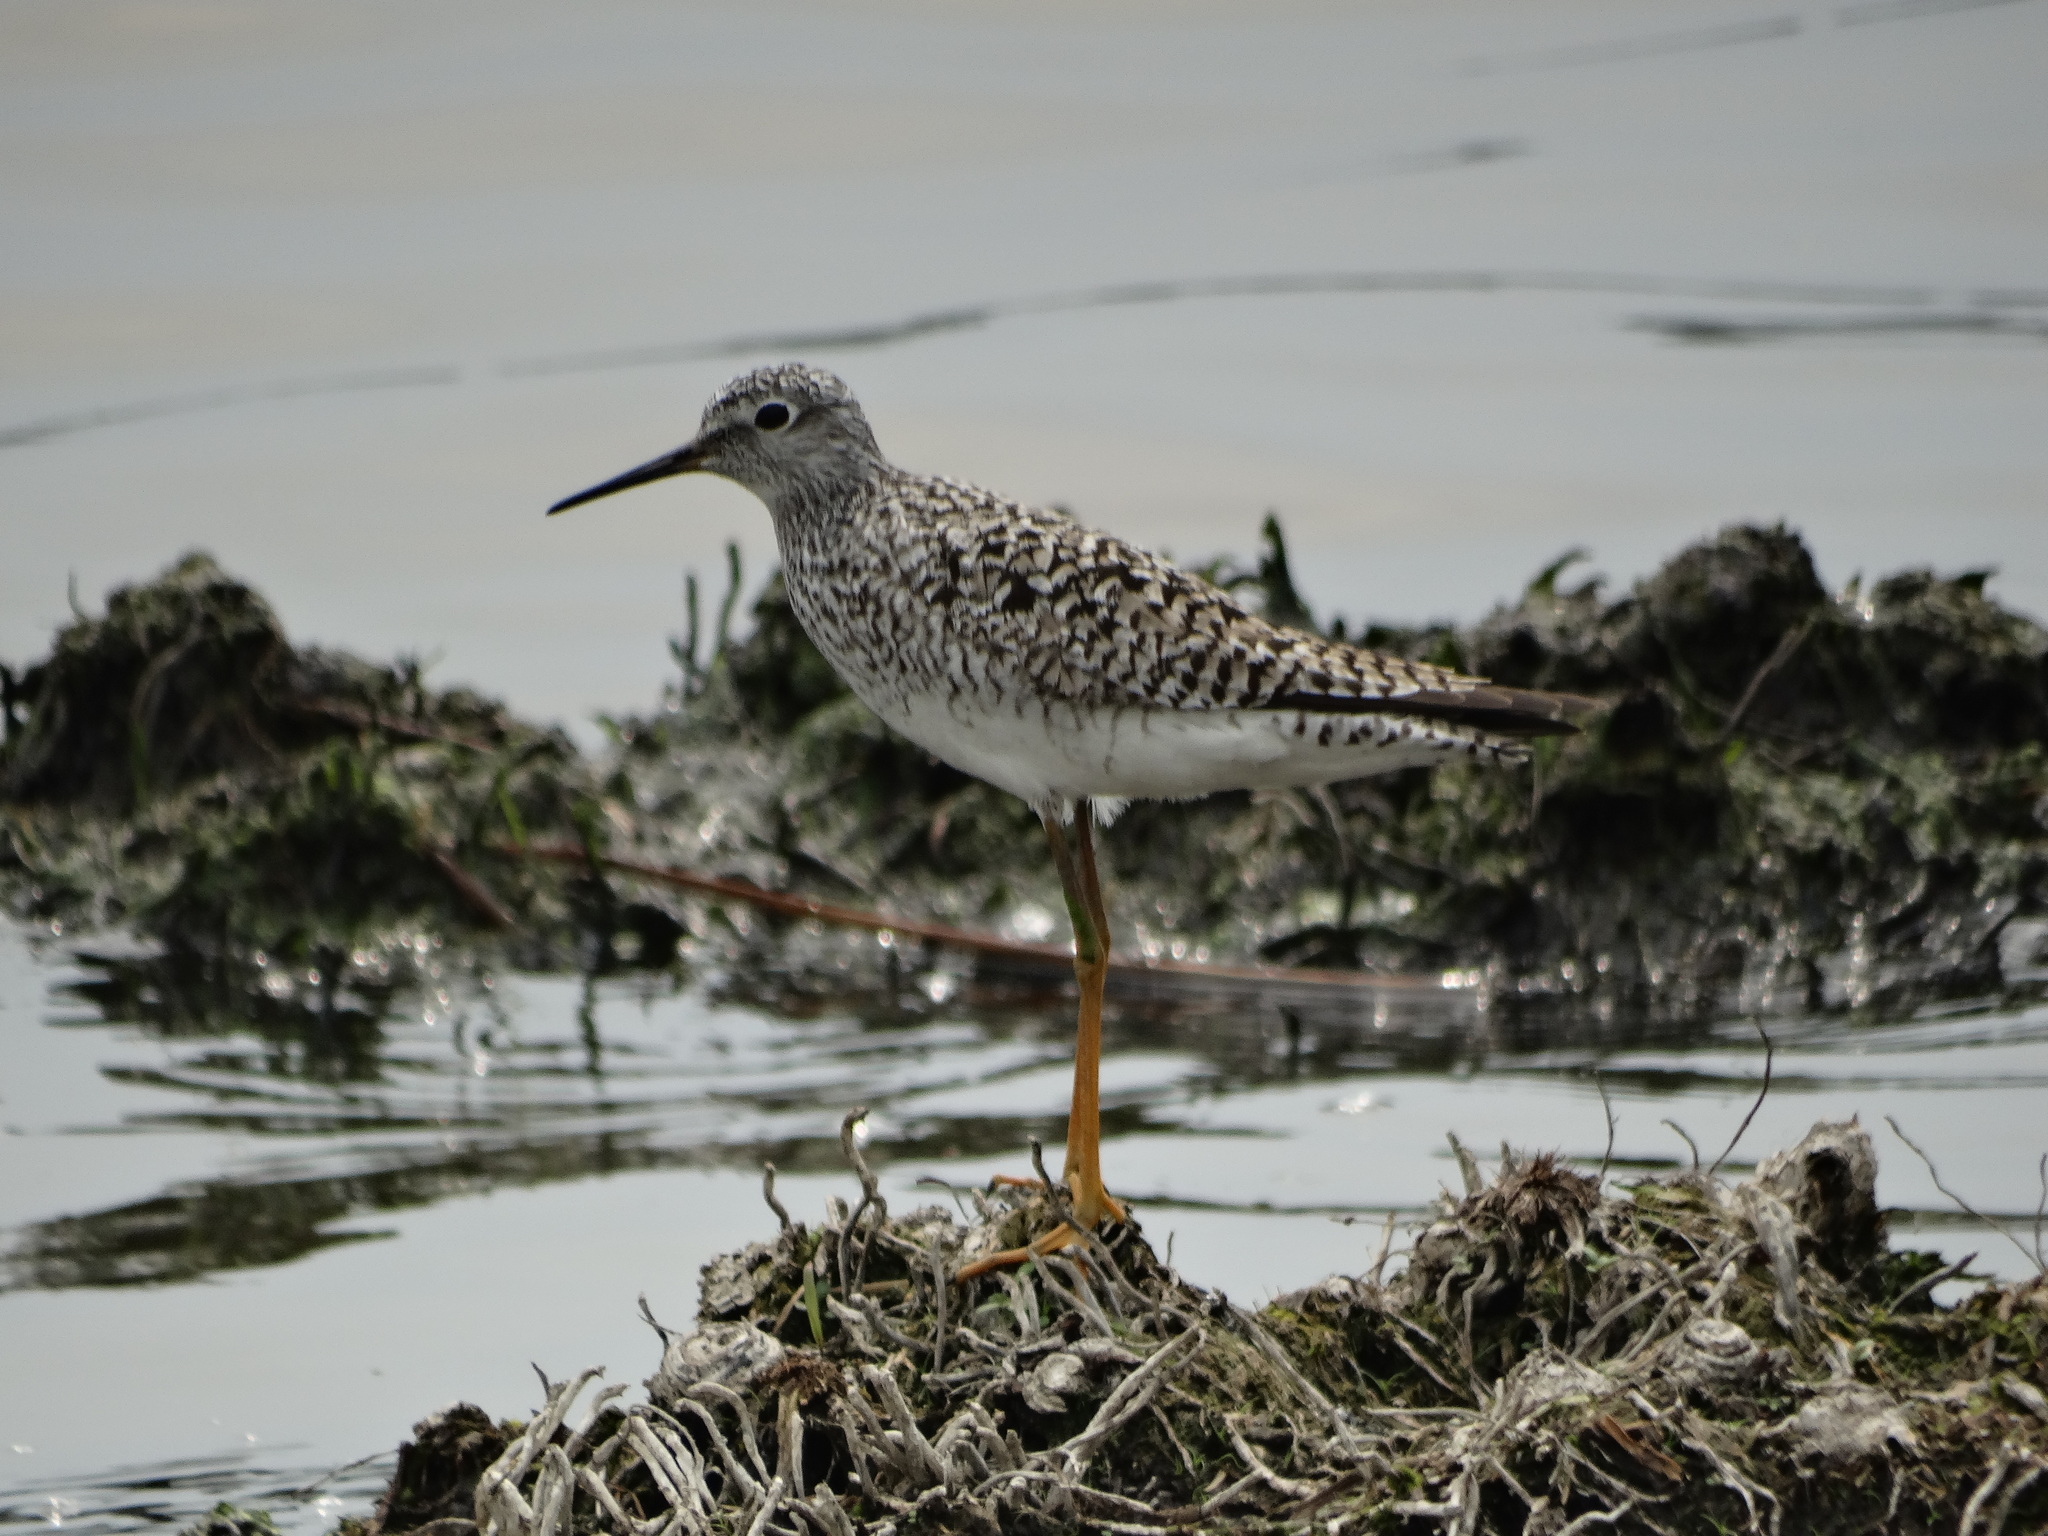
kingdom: Animalia
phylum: Chordata
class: Aves
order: Charadriiformes
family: Scolopacidae
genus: Tringa
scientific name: Tringa flavipes
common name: Lesser yellowlegs
